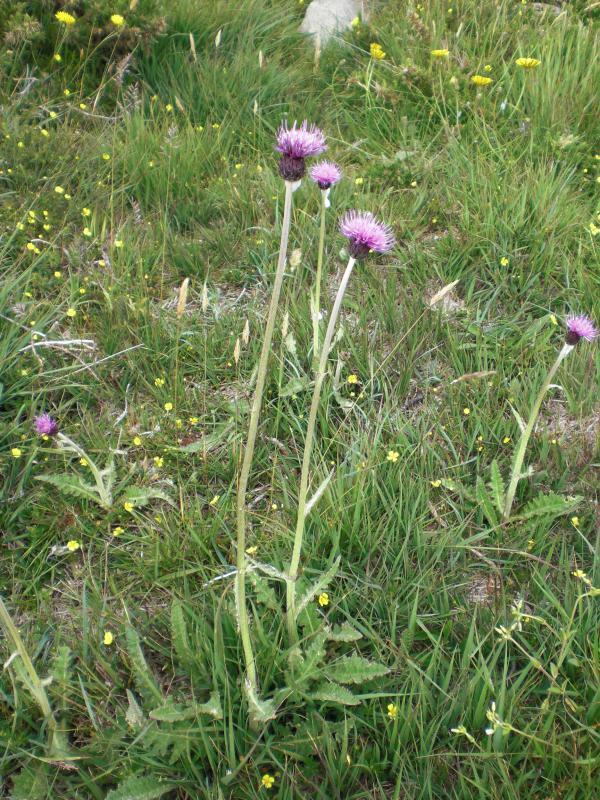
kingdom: Plantae
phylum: Tracheophyta
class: Magnoliopsida
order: Asterales
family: Asteraceae
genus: Cirsium
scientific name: Cirsium dissectum
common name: Meadow thistle
